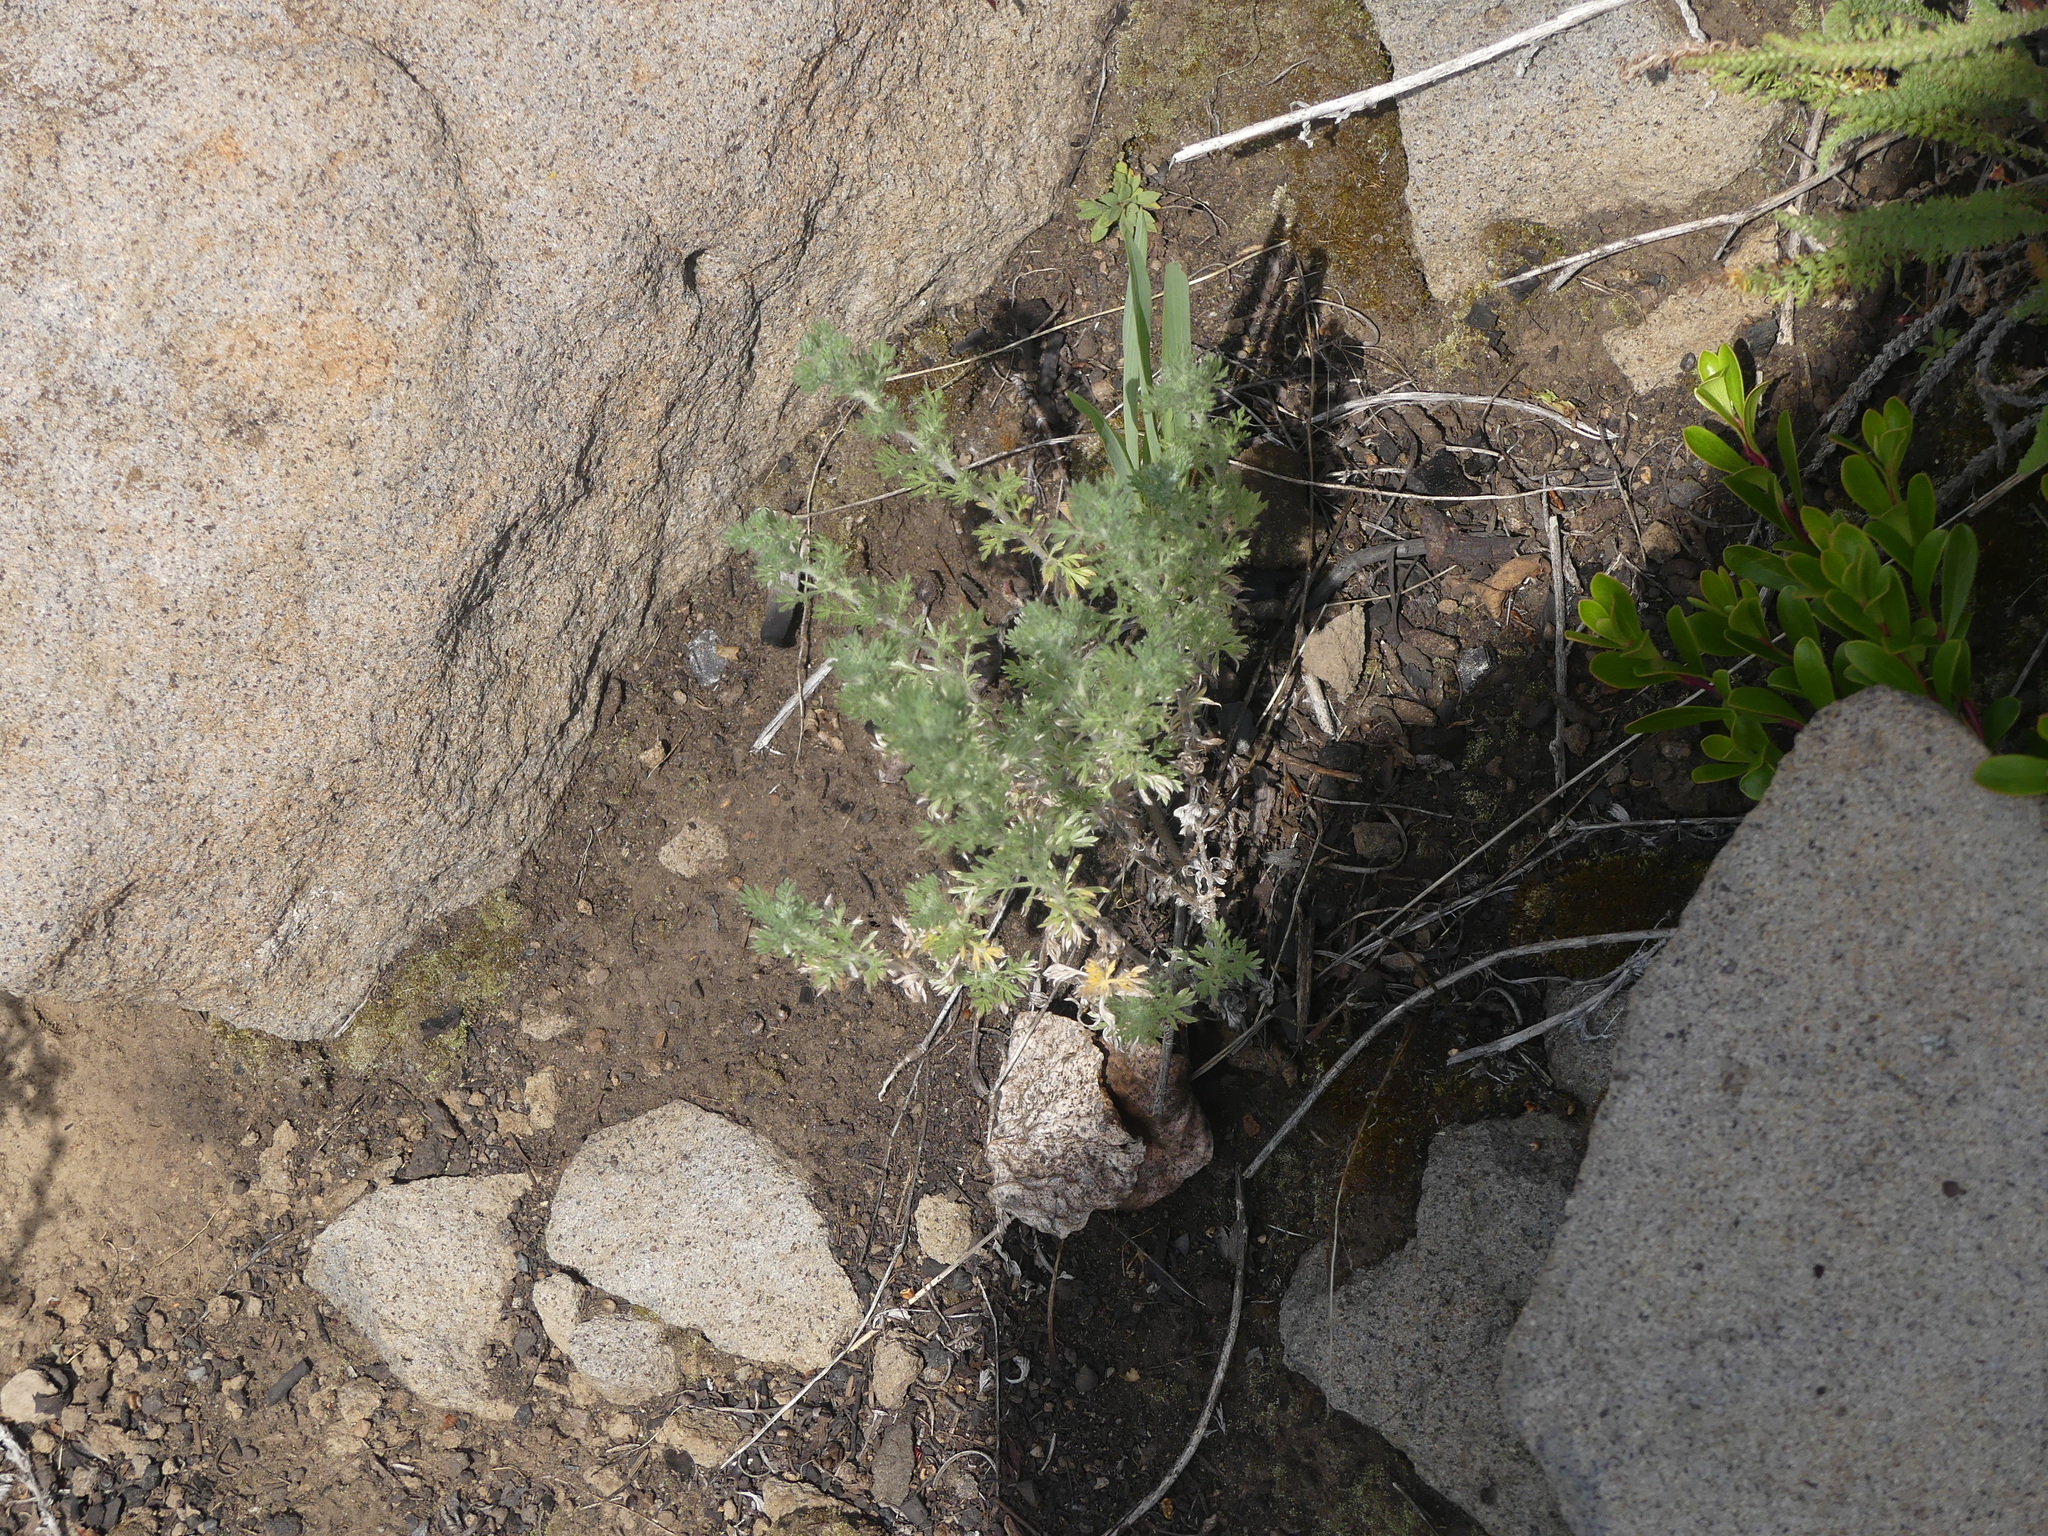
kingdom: Plantae
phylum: Tracheophyta
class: Magnoliopsida
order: Asterales
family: Asteraceae
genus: Artemisia
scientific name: Artemisia frigida
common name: Prairie sagewort
